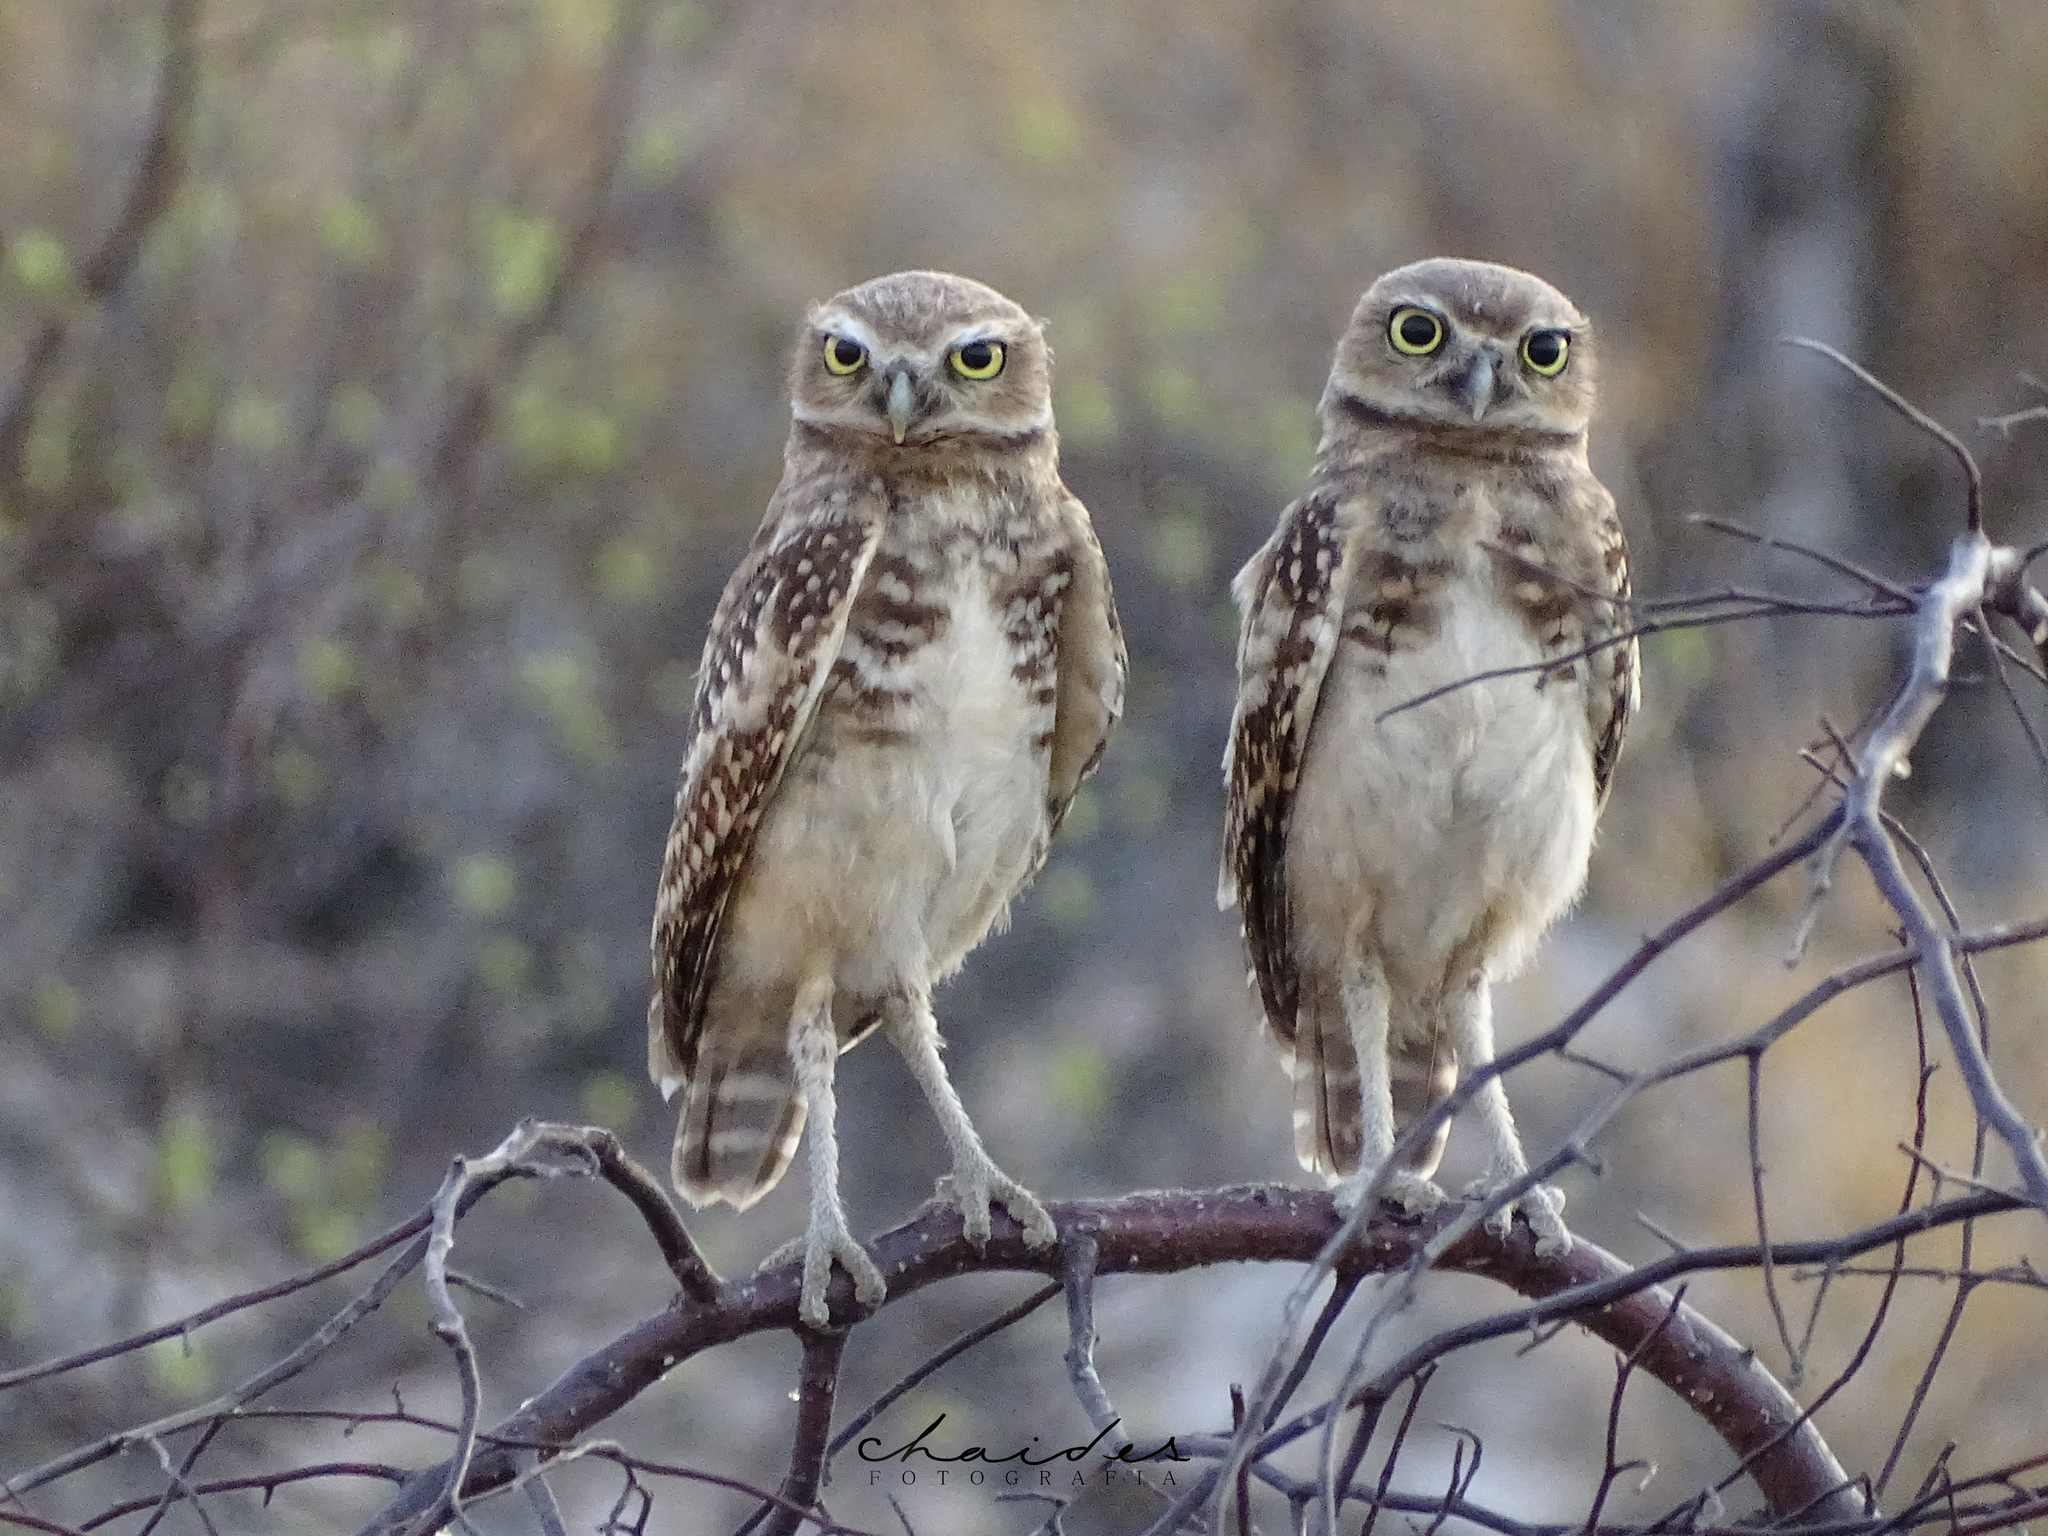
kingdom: Animalia
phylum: Chordata
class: Aves
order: Strigiformes
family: Strigidae
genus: Athene
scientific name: Athene cunicularia
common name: Burrowing owl
